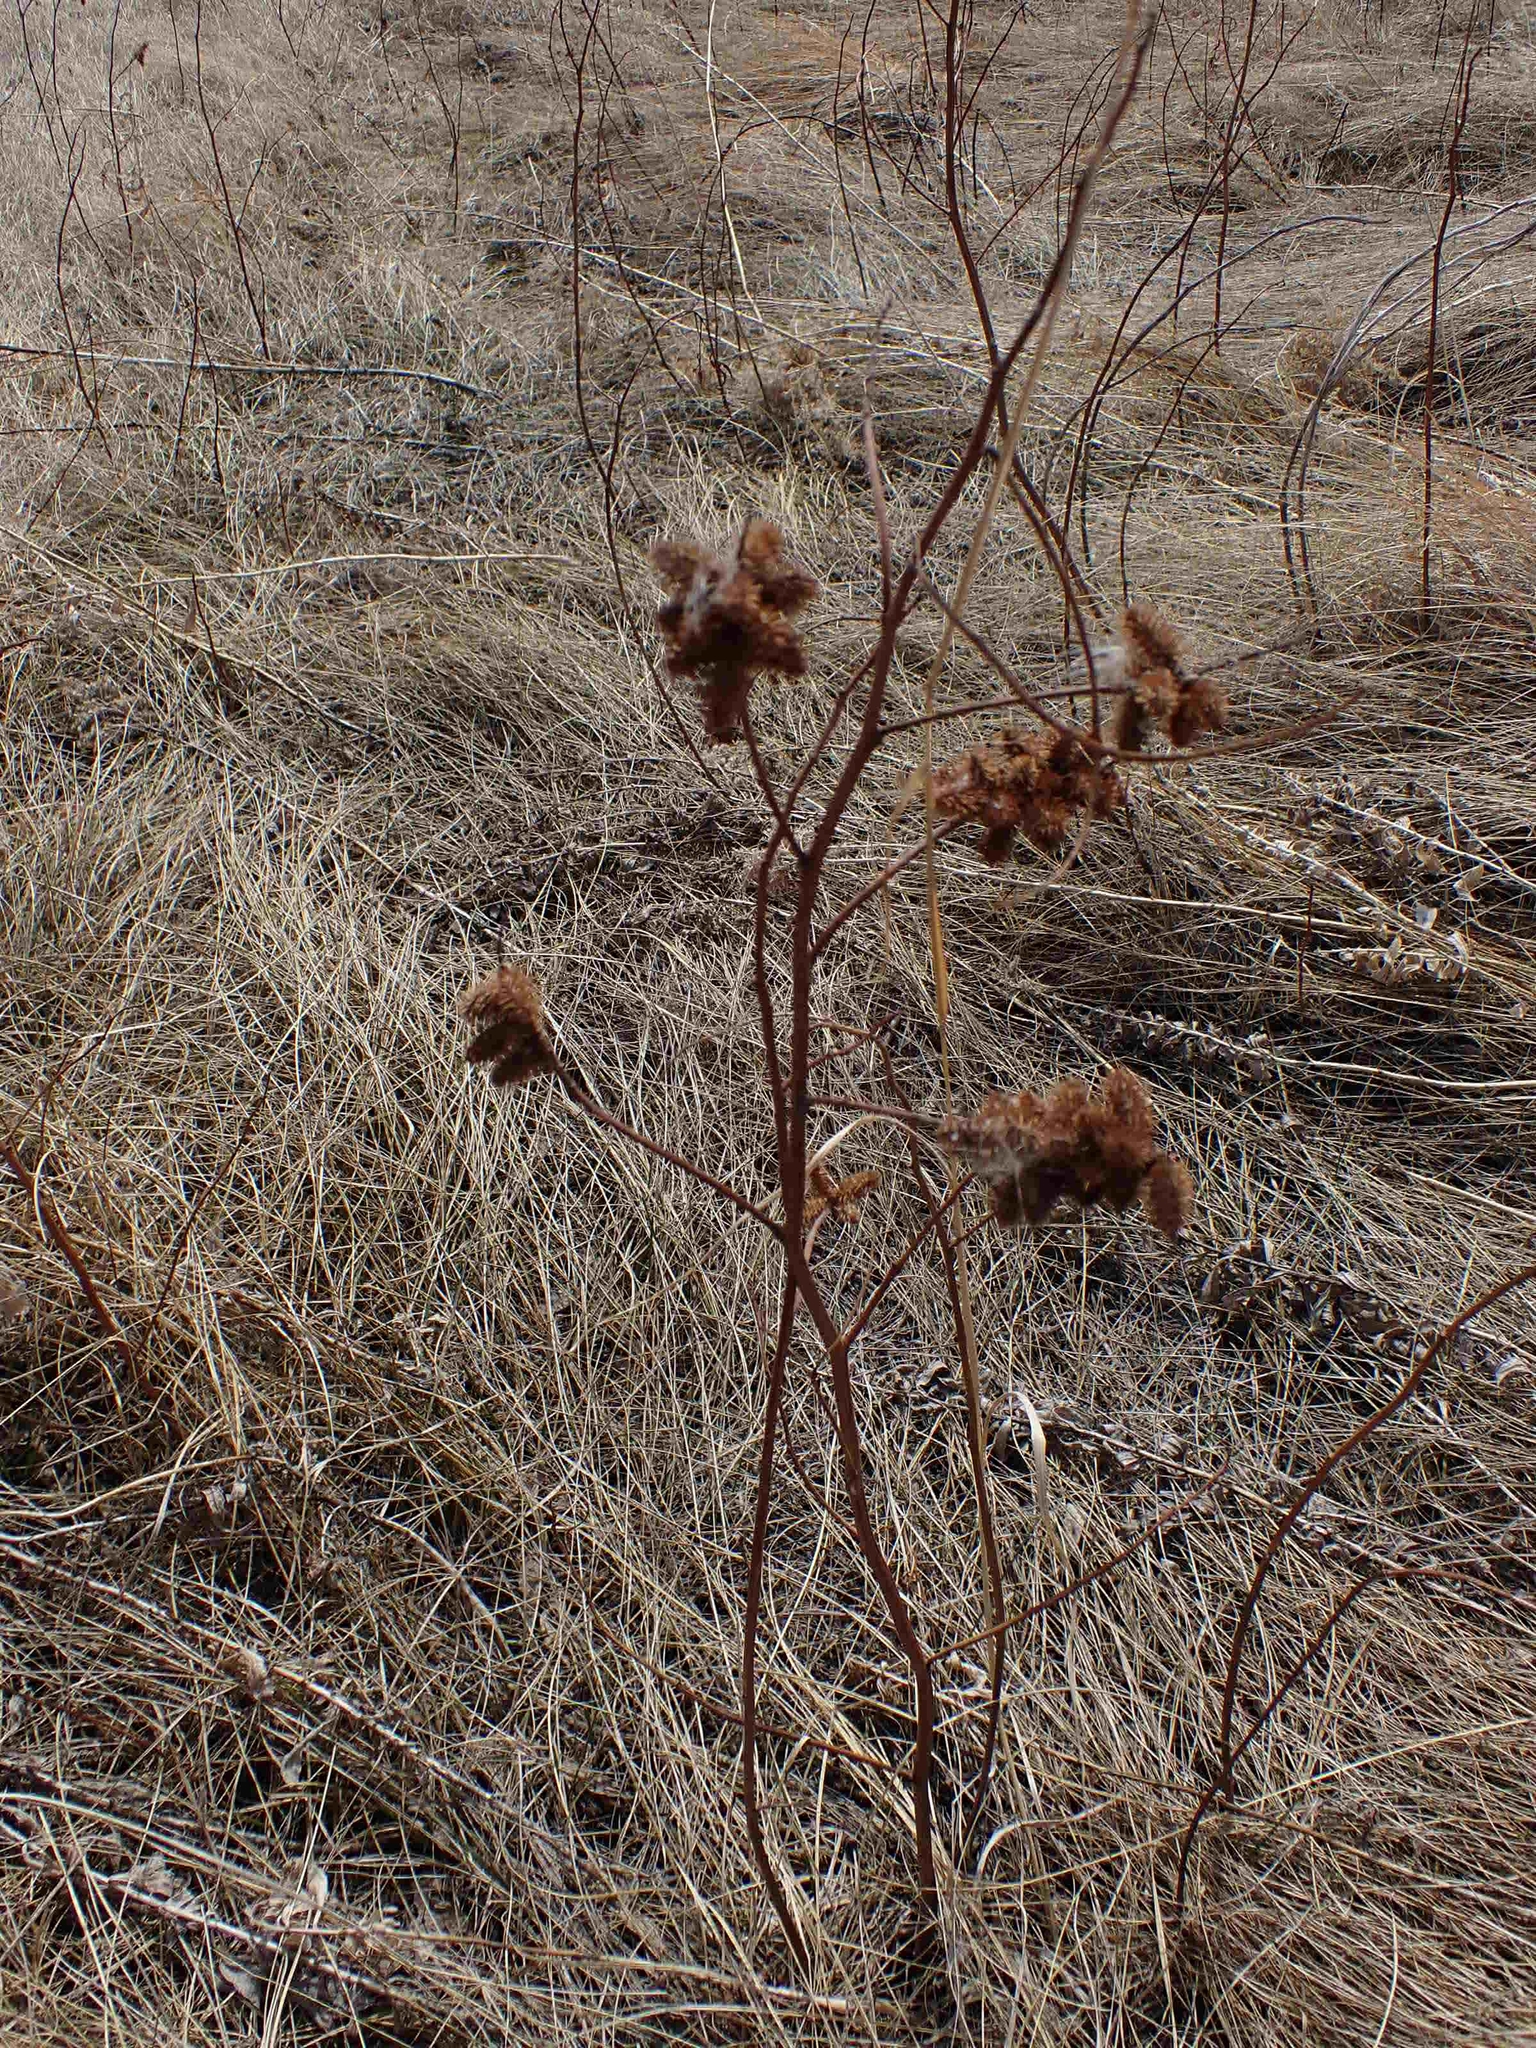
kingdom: Plantae
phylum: Tracheophyta
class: Magnoliopsida
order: Fabales
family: Fabaceae
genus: Glycyrrhiza
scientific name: Glycyrrhiza lepidota
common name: American liquorice
